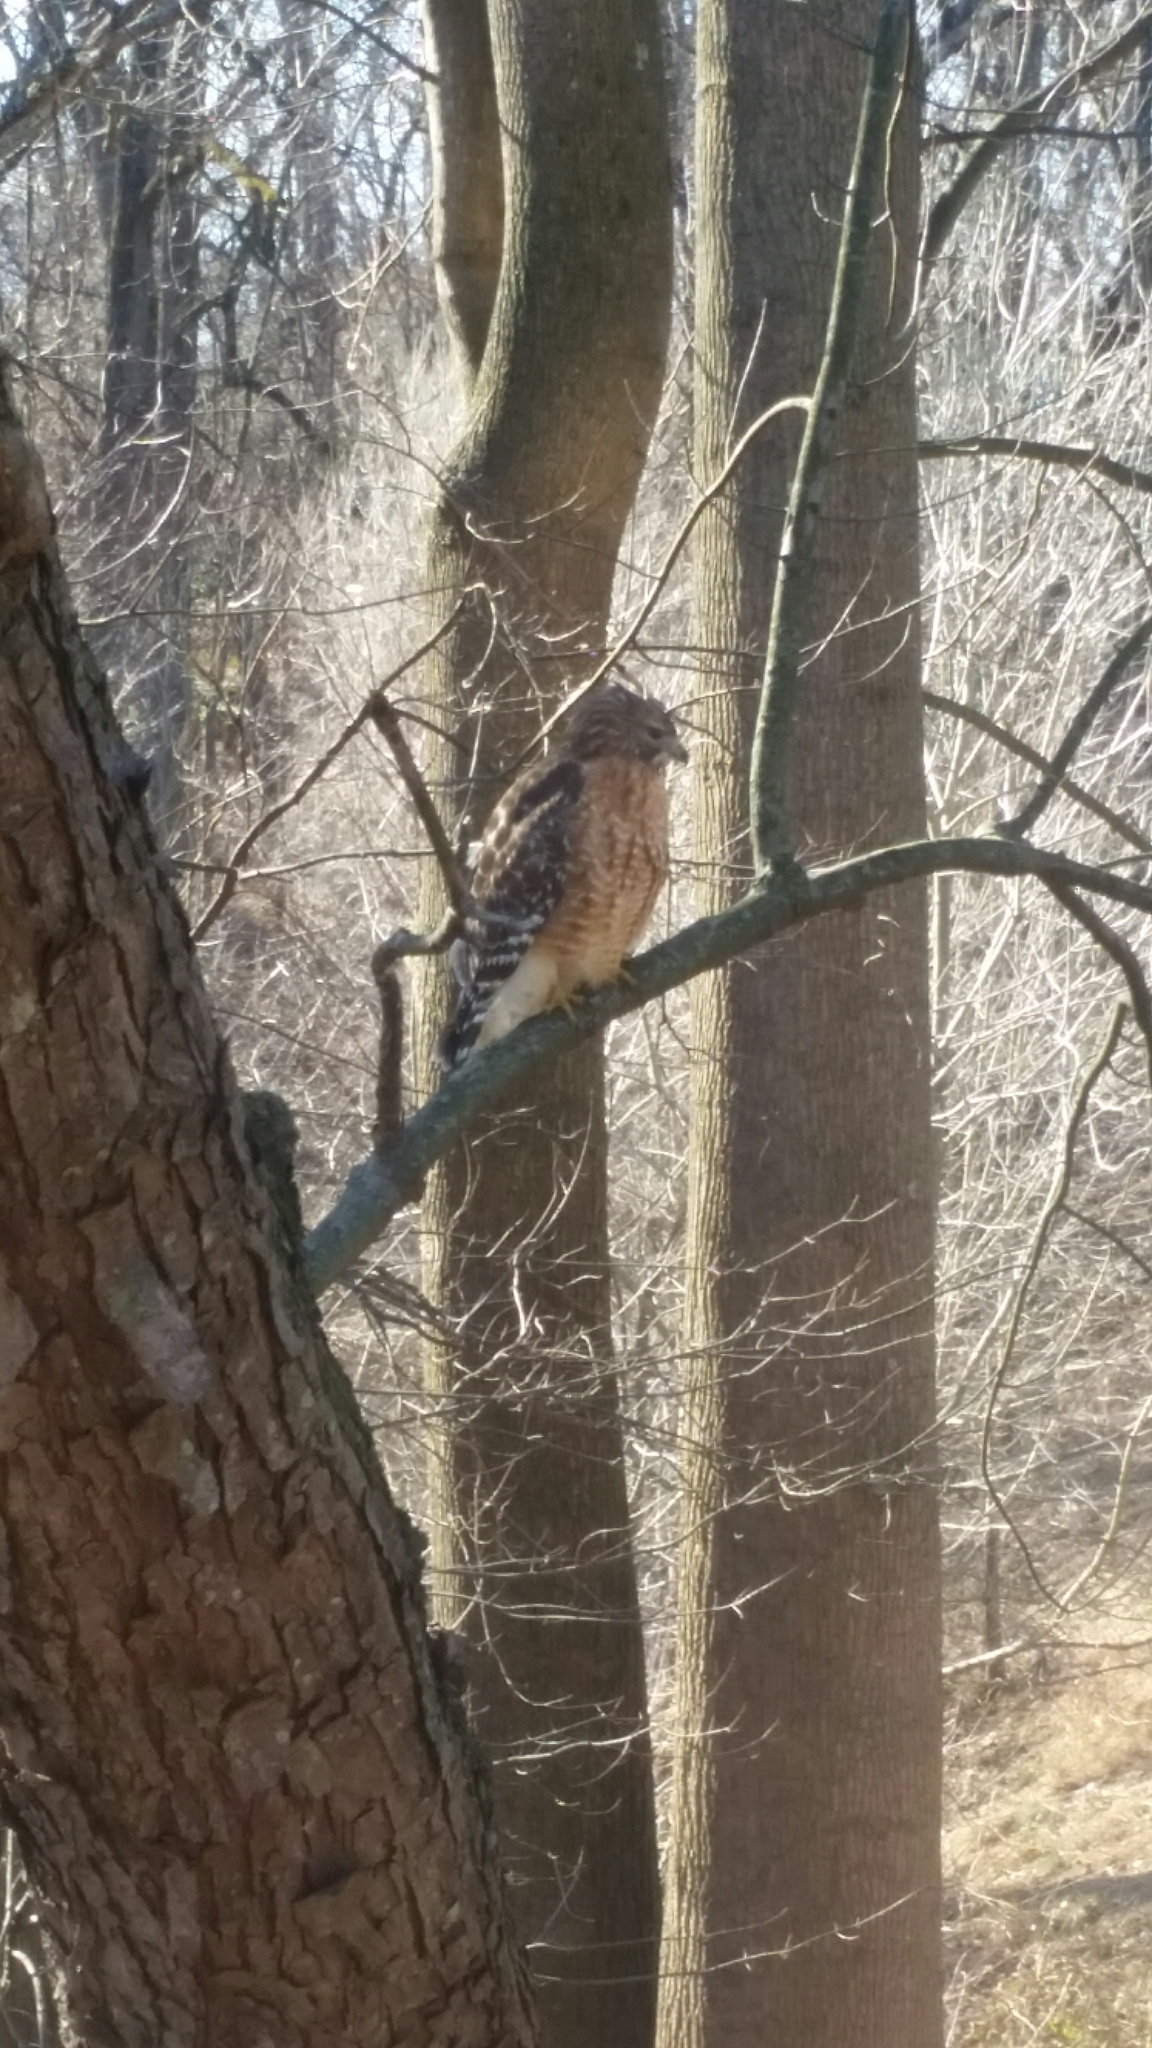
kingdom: Animalia
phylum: Chordata
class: Aves
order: Accipitriformes
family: Accipitridae
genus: Buteo
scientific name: Buteo lineatus
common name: Red-shouldered hawk
